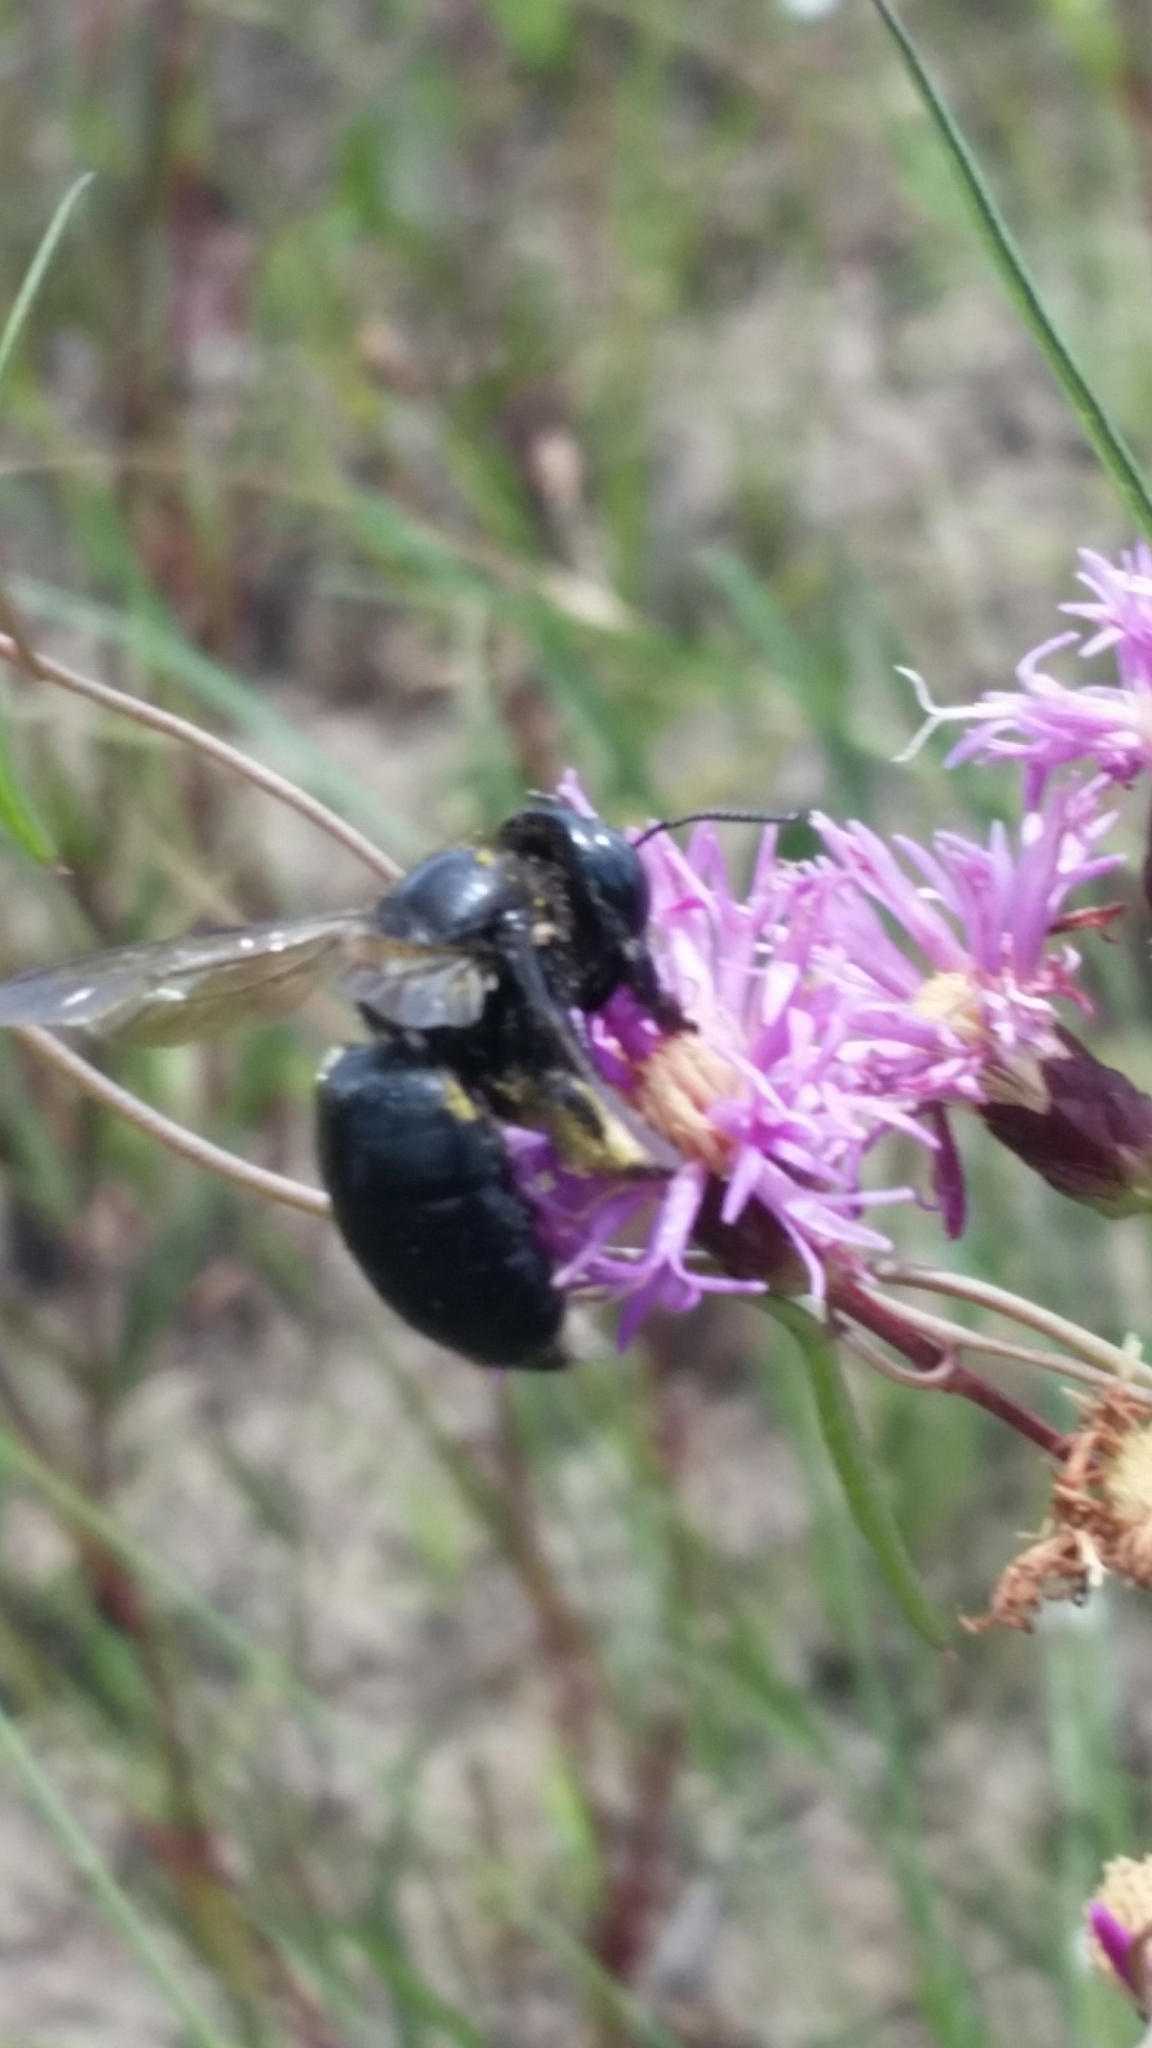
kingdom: Animalia
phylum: Arthropoda
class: Insecta
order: Hymenoptera
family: Apidae
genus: Xylocopa
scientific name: Xylocopa micans
